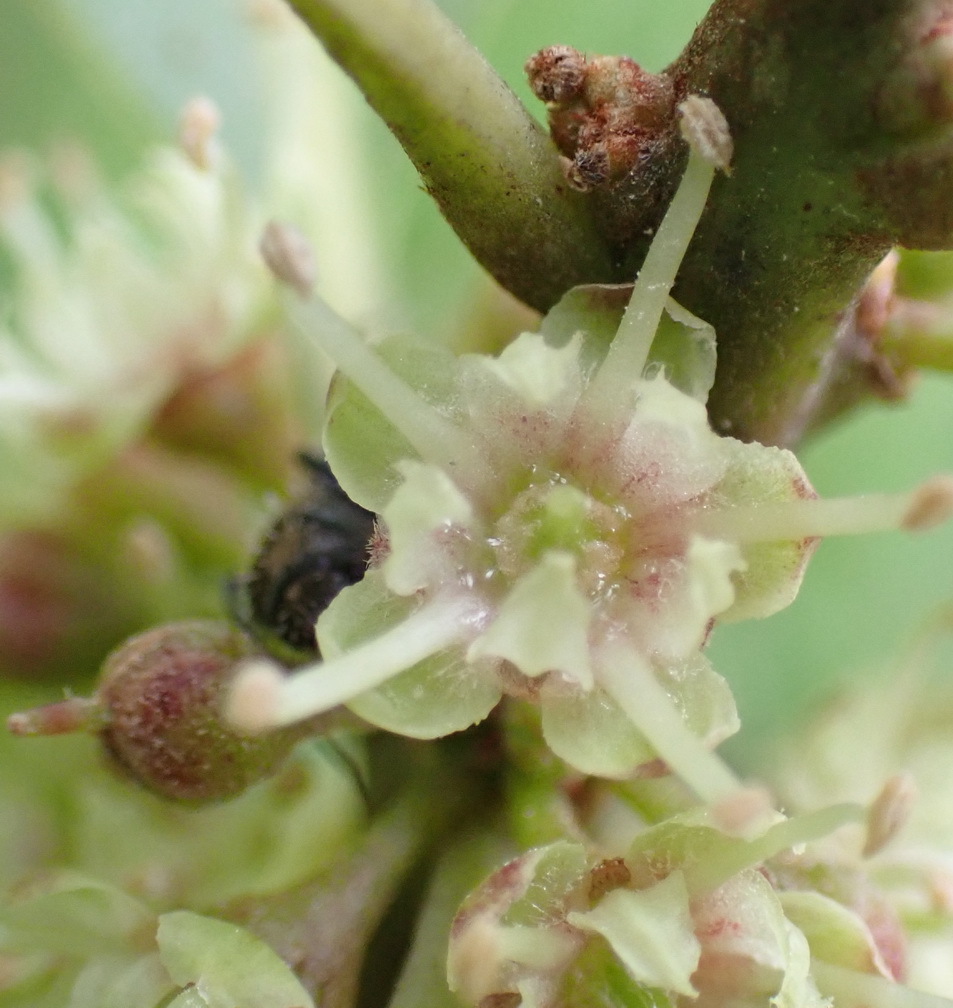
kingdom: Plantae
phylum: Tracheophyta
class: Magnoliopsida
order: Ericales
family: Sapotaceae
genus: Sideroxylon
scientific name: Sideroxylon inerme
